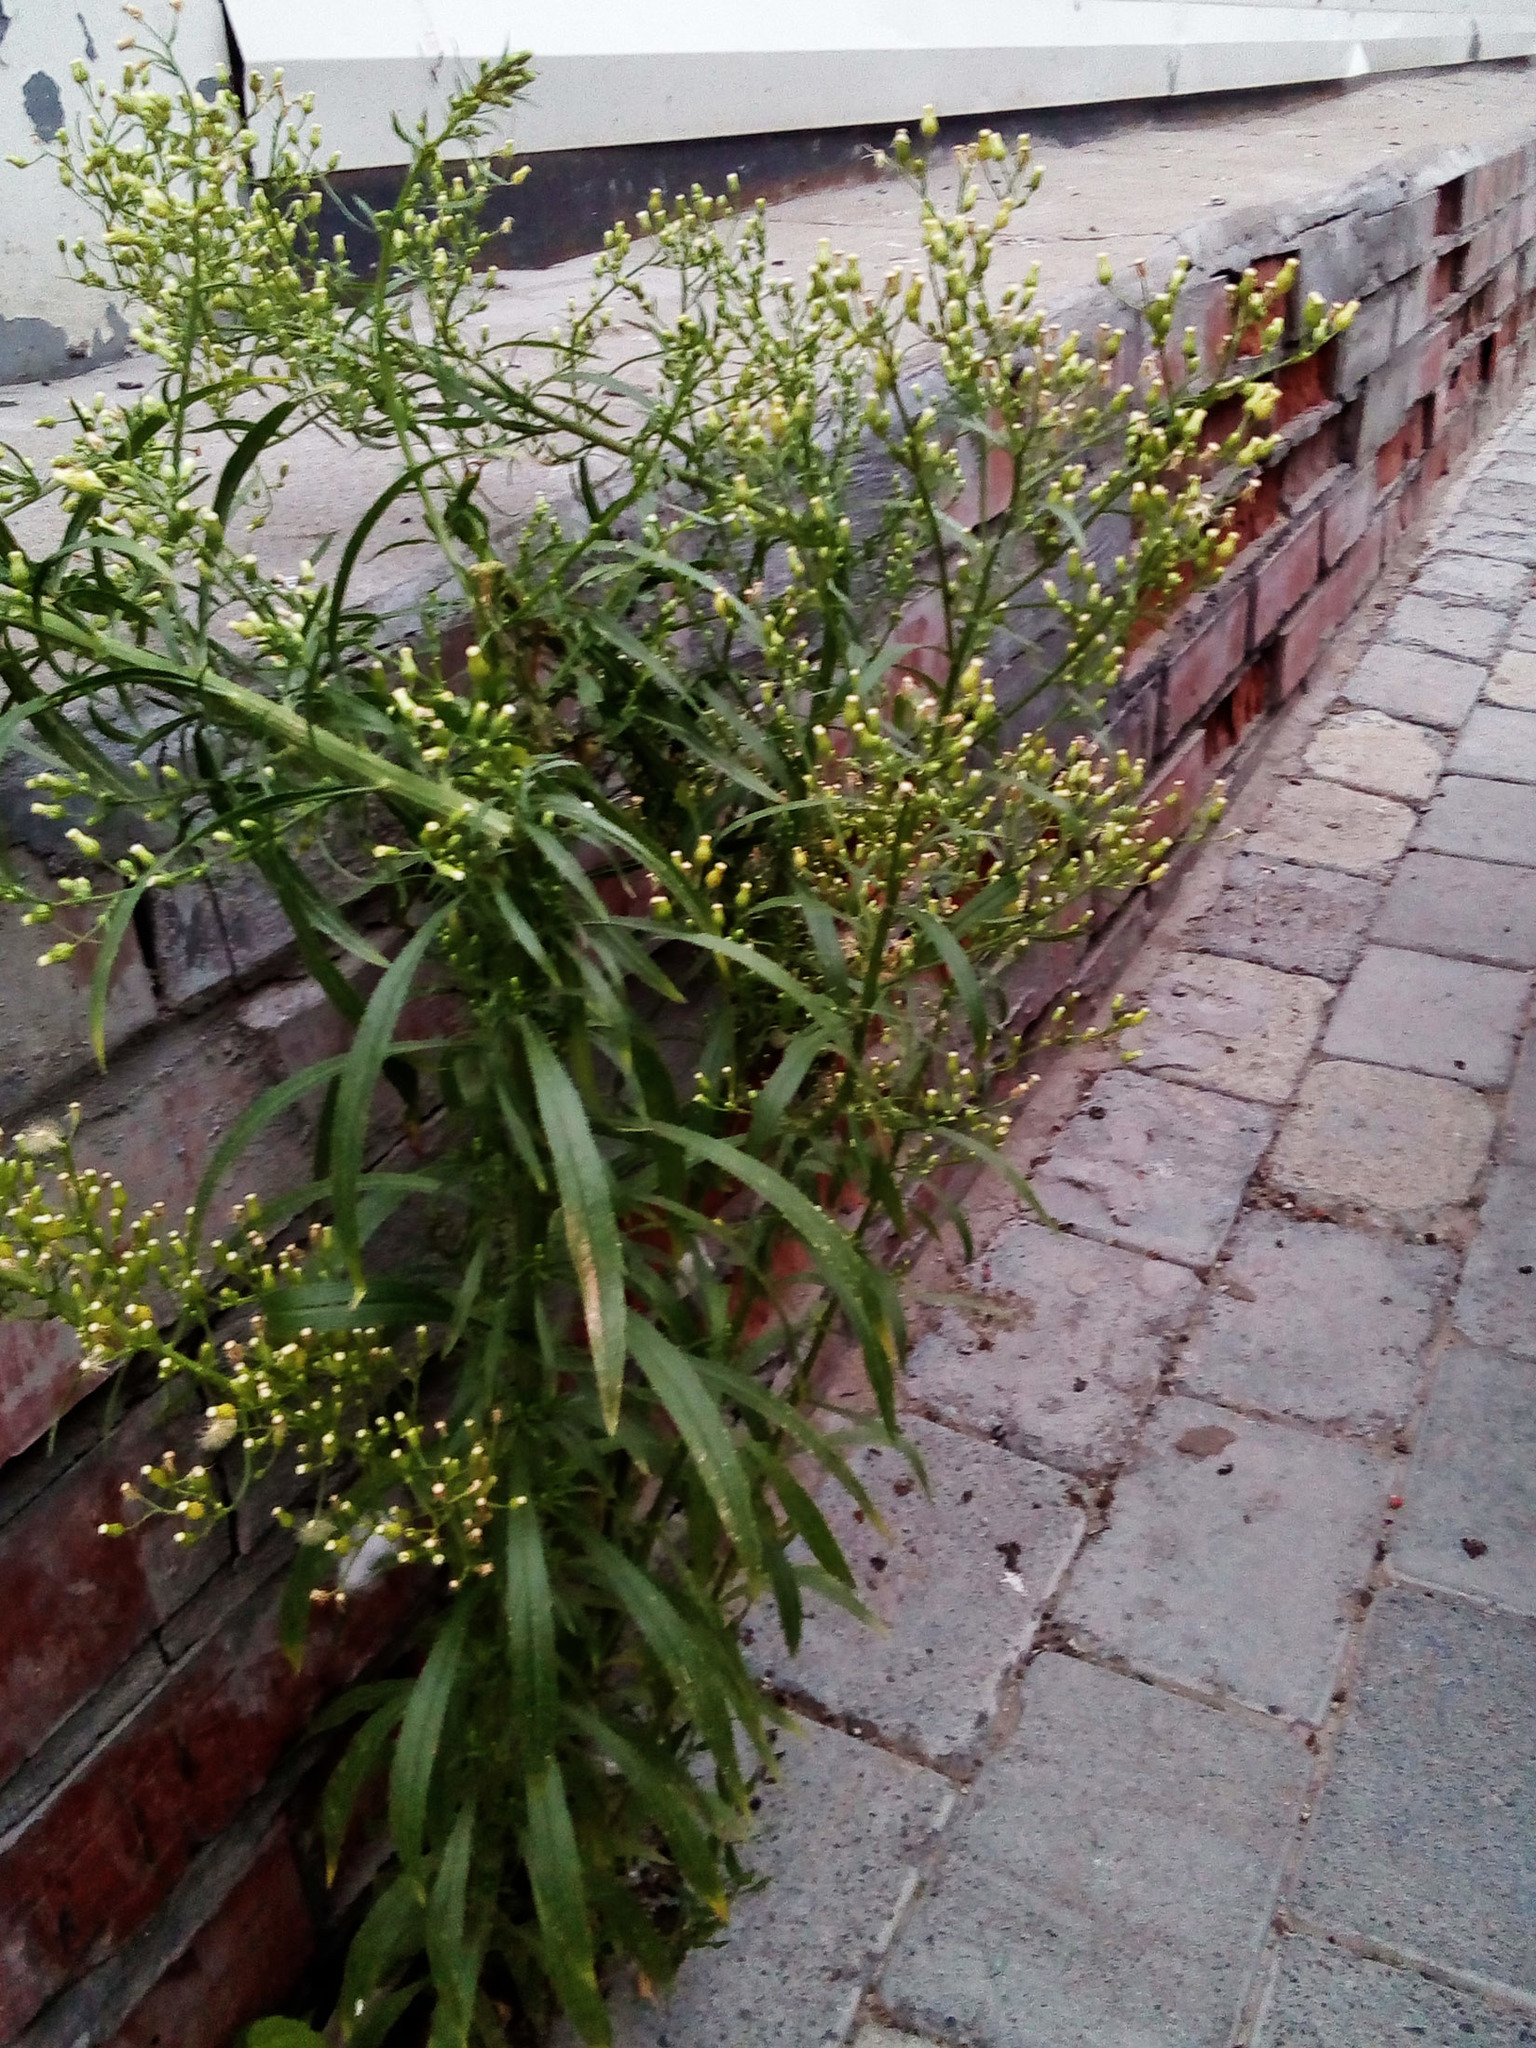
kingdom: Plantae
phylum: Tracheophyta
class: Magnoliopsida
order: Asterales
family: Asteraceae
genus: Erigeron
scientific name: Erigeron canadensis
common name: Canadian fleabane
